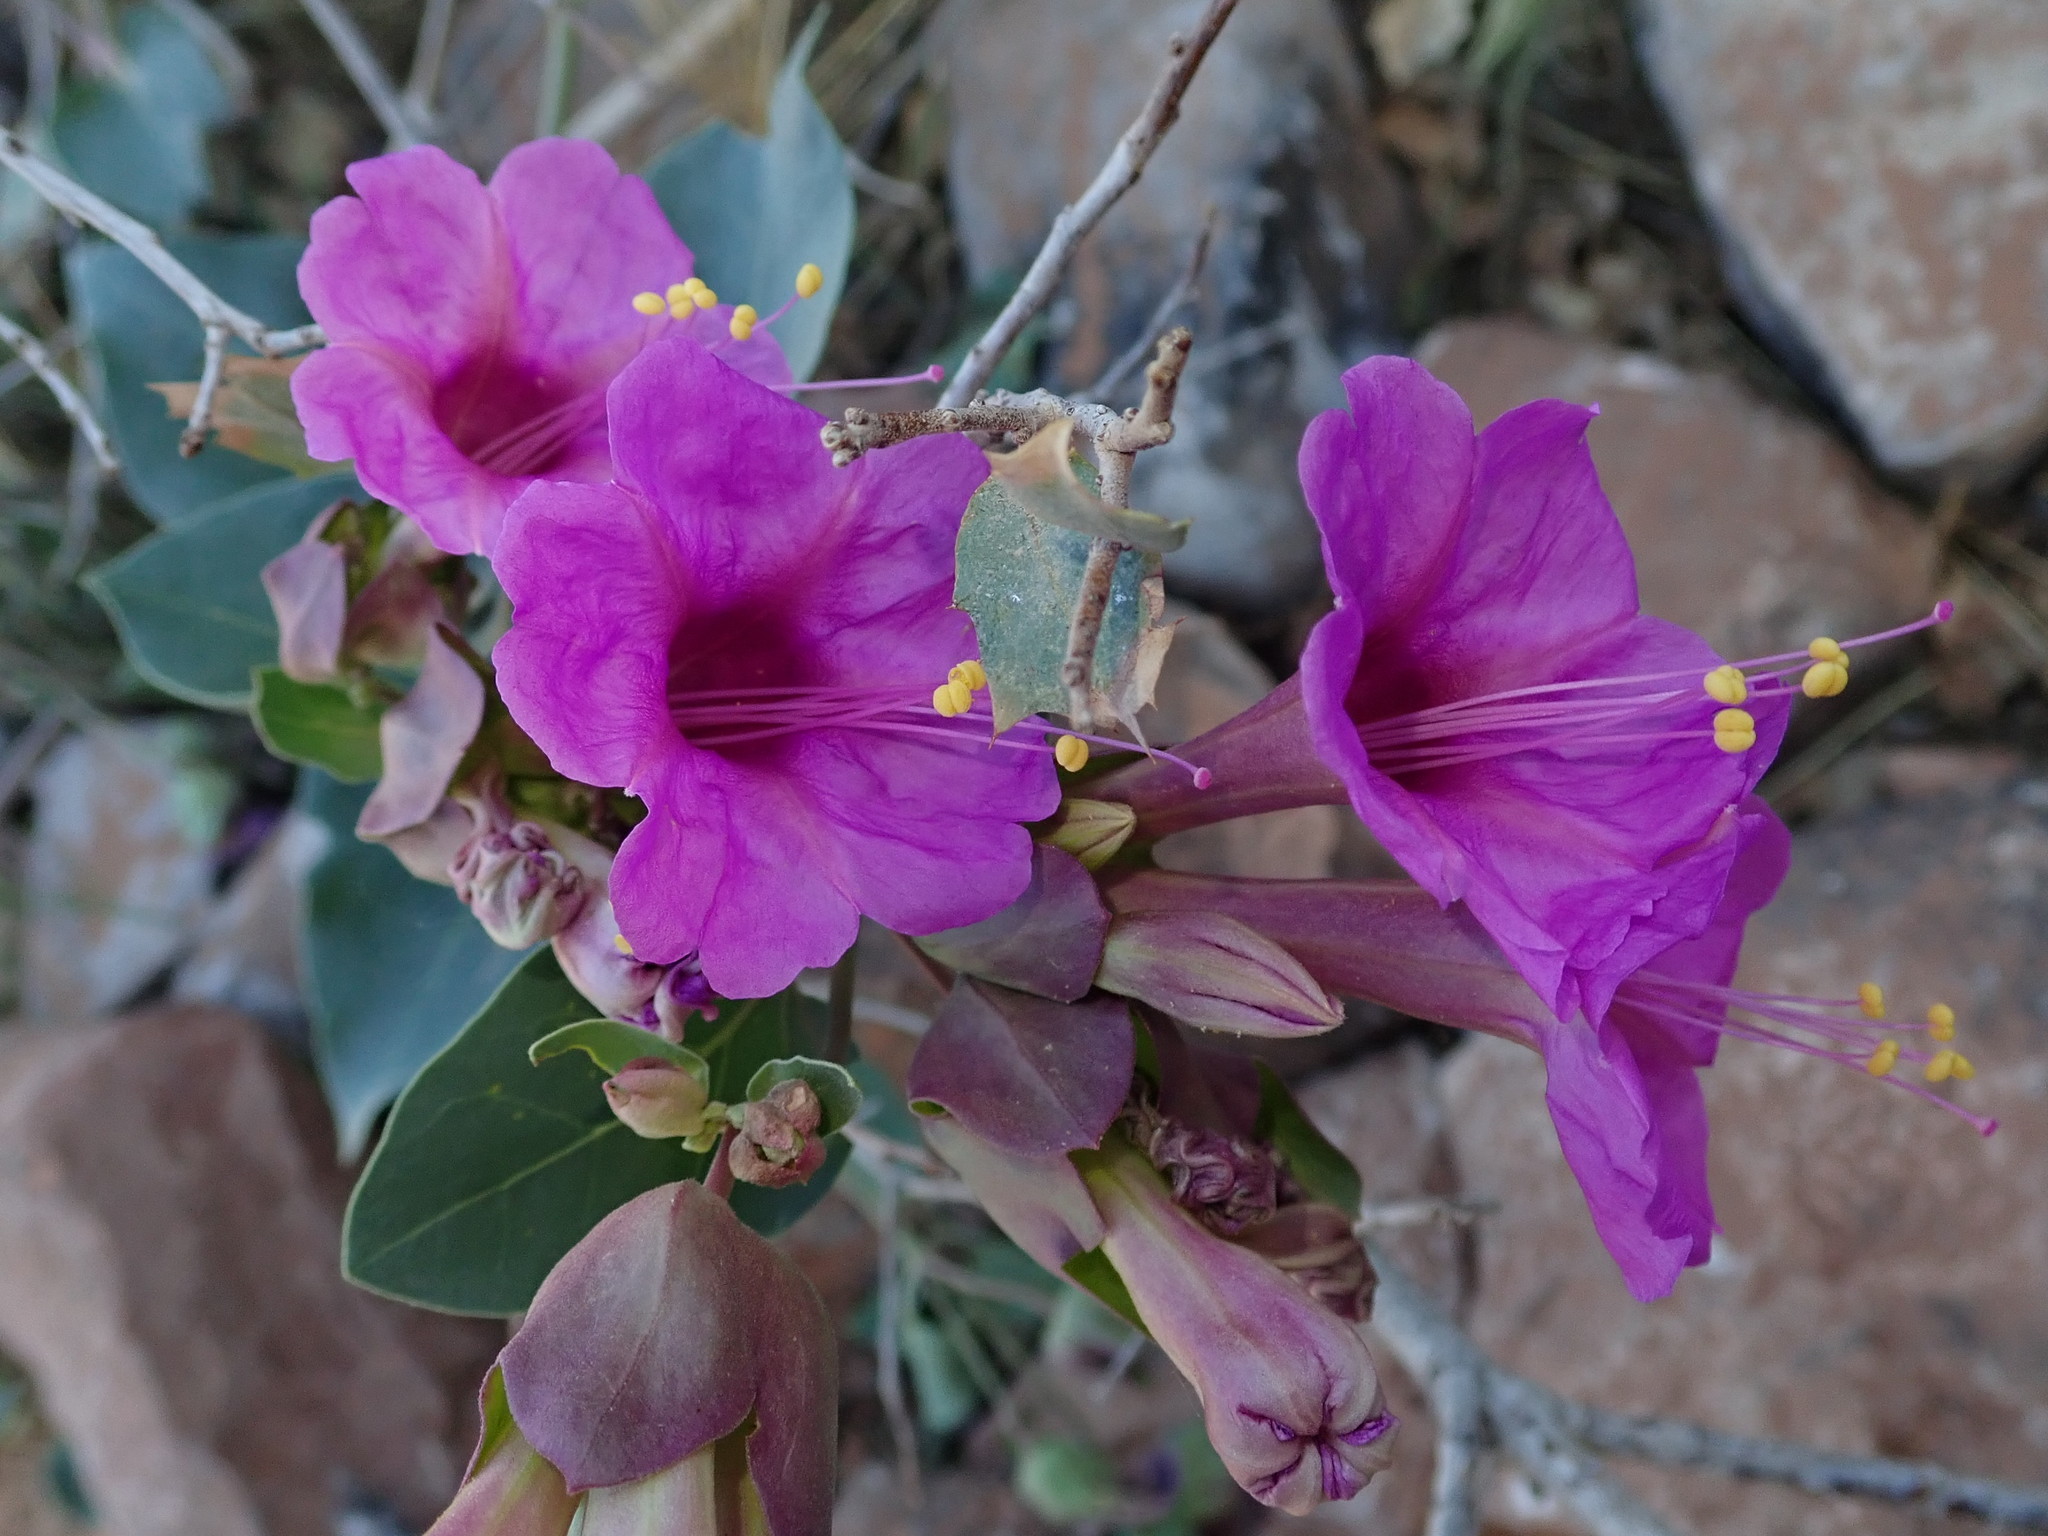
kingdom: Plantae
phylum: Tracheophyta
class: Magnoliopsida
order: Caryophyllales
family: Nyctaginaceae
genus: Mirabilis
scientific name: Mirabilis multiflora
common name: Froebel's four-o'clock
